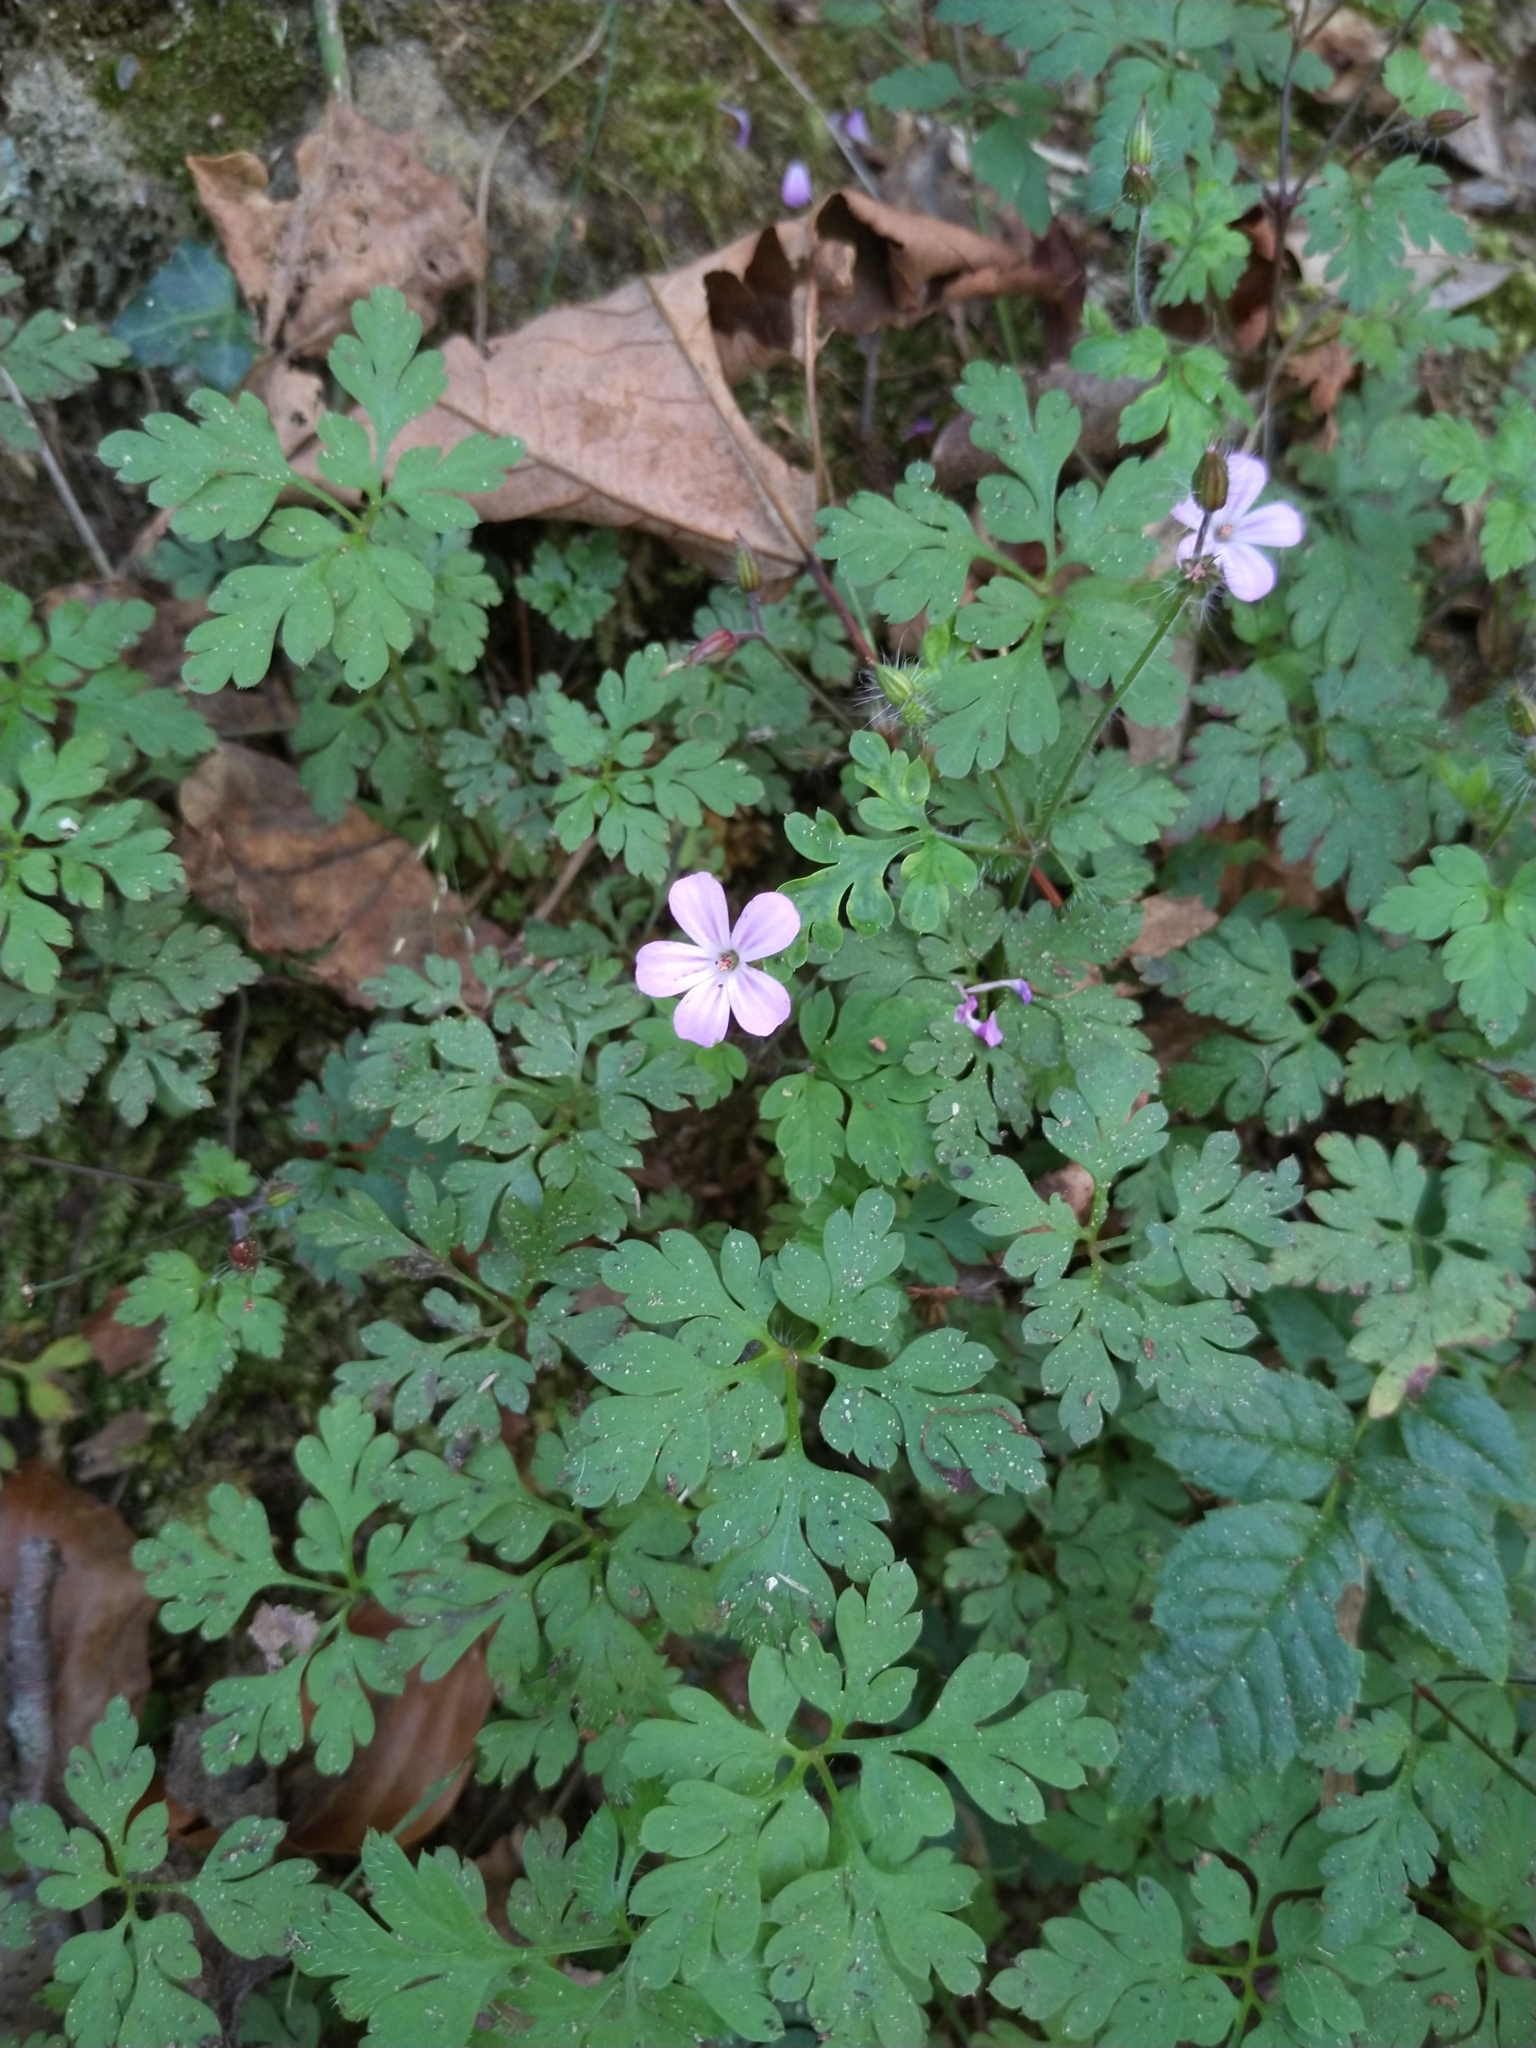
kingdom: Plantae
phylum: Tracheophyta
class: Magnoliopsida
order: Geraniales
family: Geraniaceae
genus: Geranium
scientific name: Geranium robertianum
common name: Herb-robert
